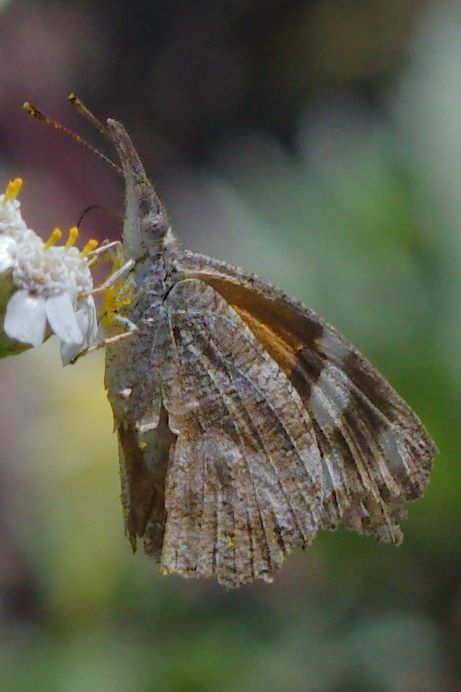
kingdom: Animalia
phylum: Arthropoda
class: Insecta
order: Lepidoptera
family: Nymphalidae
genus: Libytheana
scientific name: Libytheana carinenta
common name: American snout
